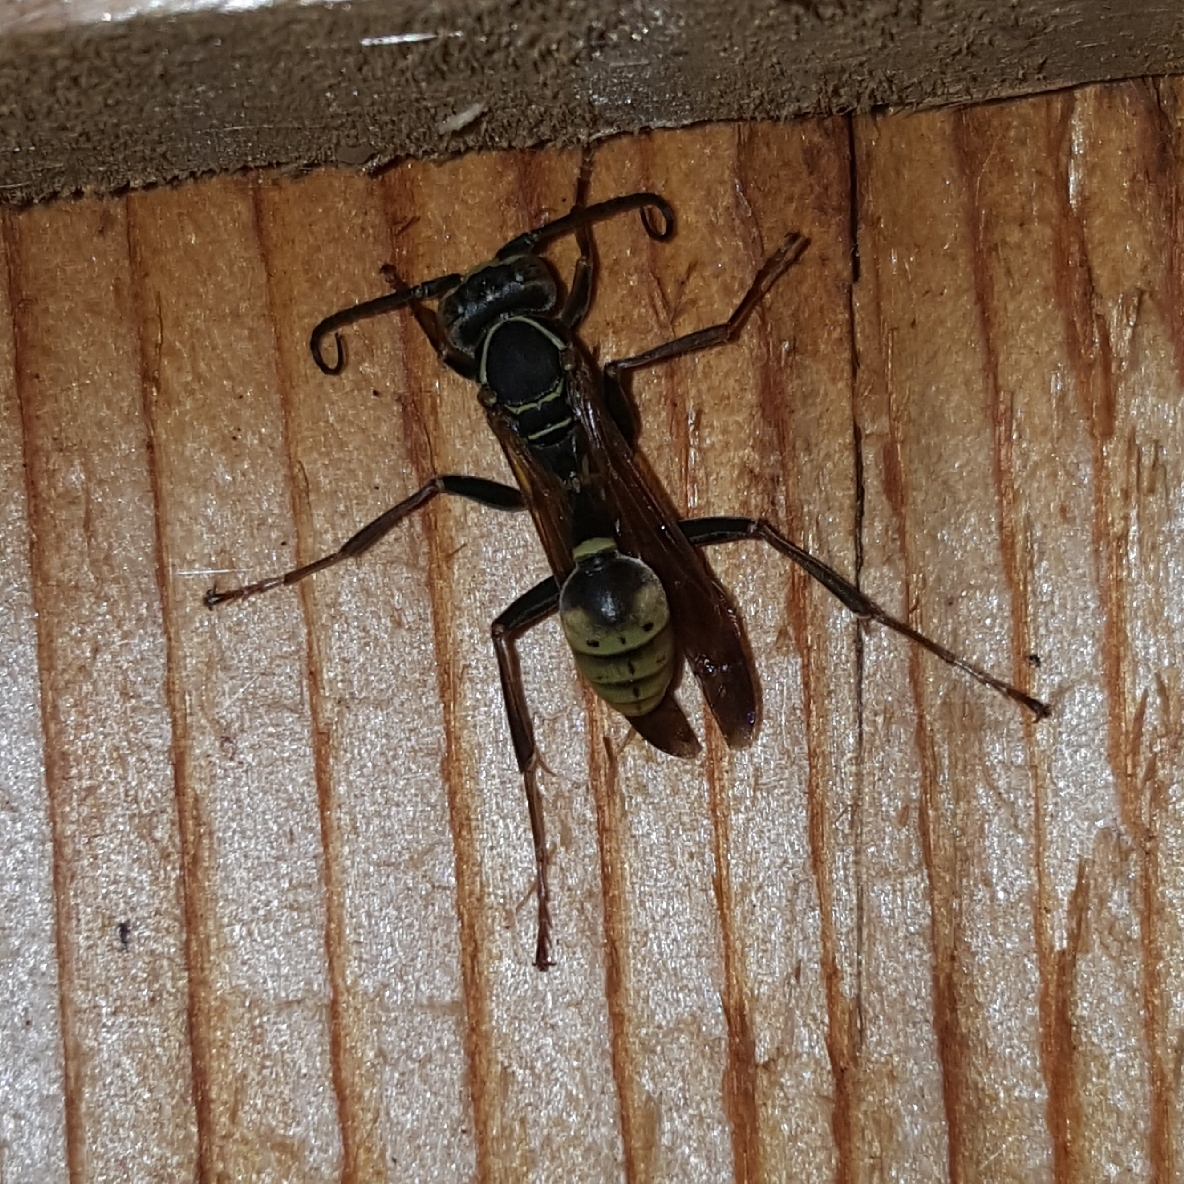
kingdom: Animalia
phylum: Arthropoda
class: Insecta
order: Hymenoptera
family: Vespidae
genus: Mischocyttarus
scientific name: Mischocyttarus flavitarsis
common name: Wasp
